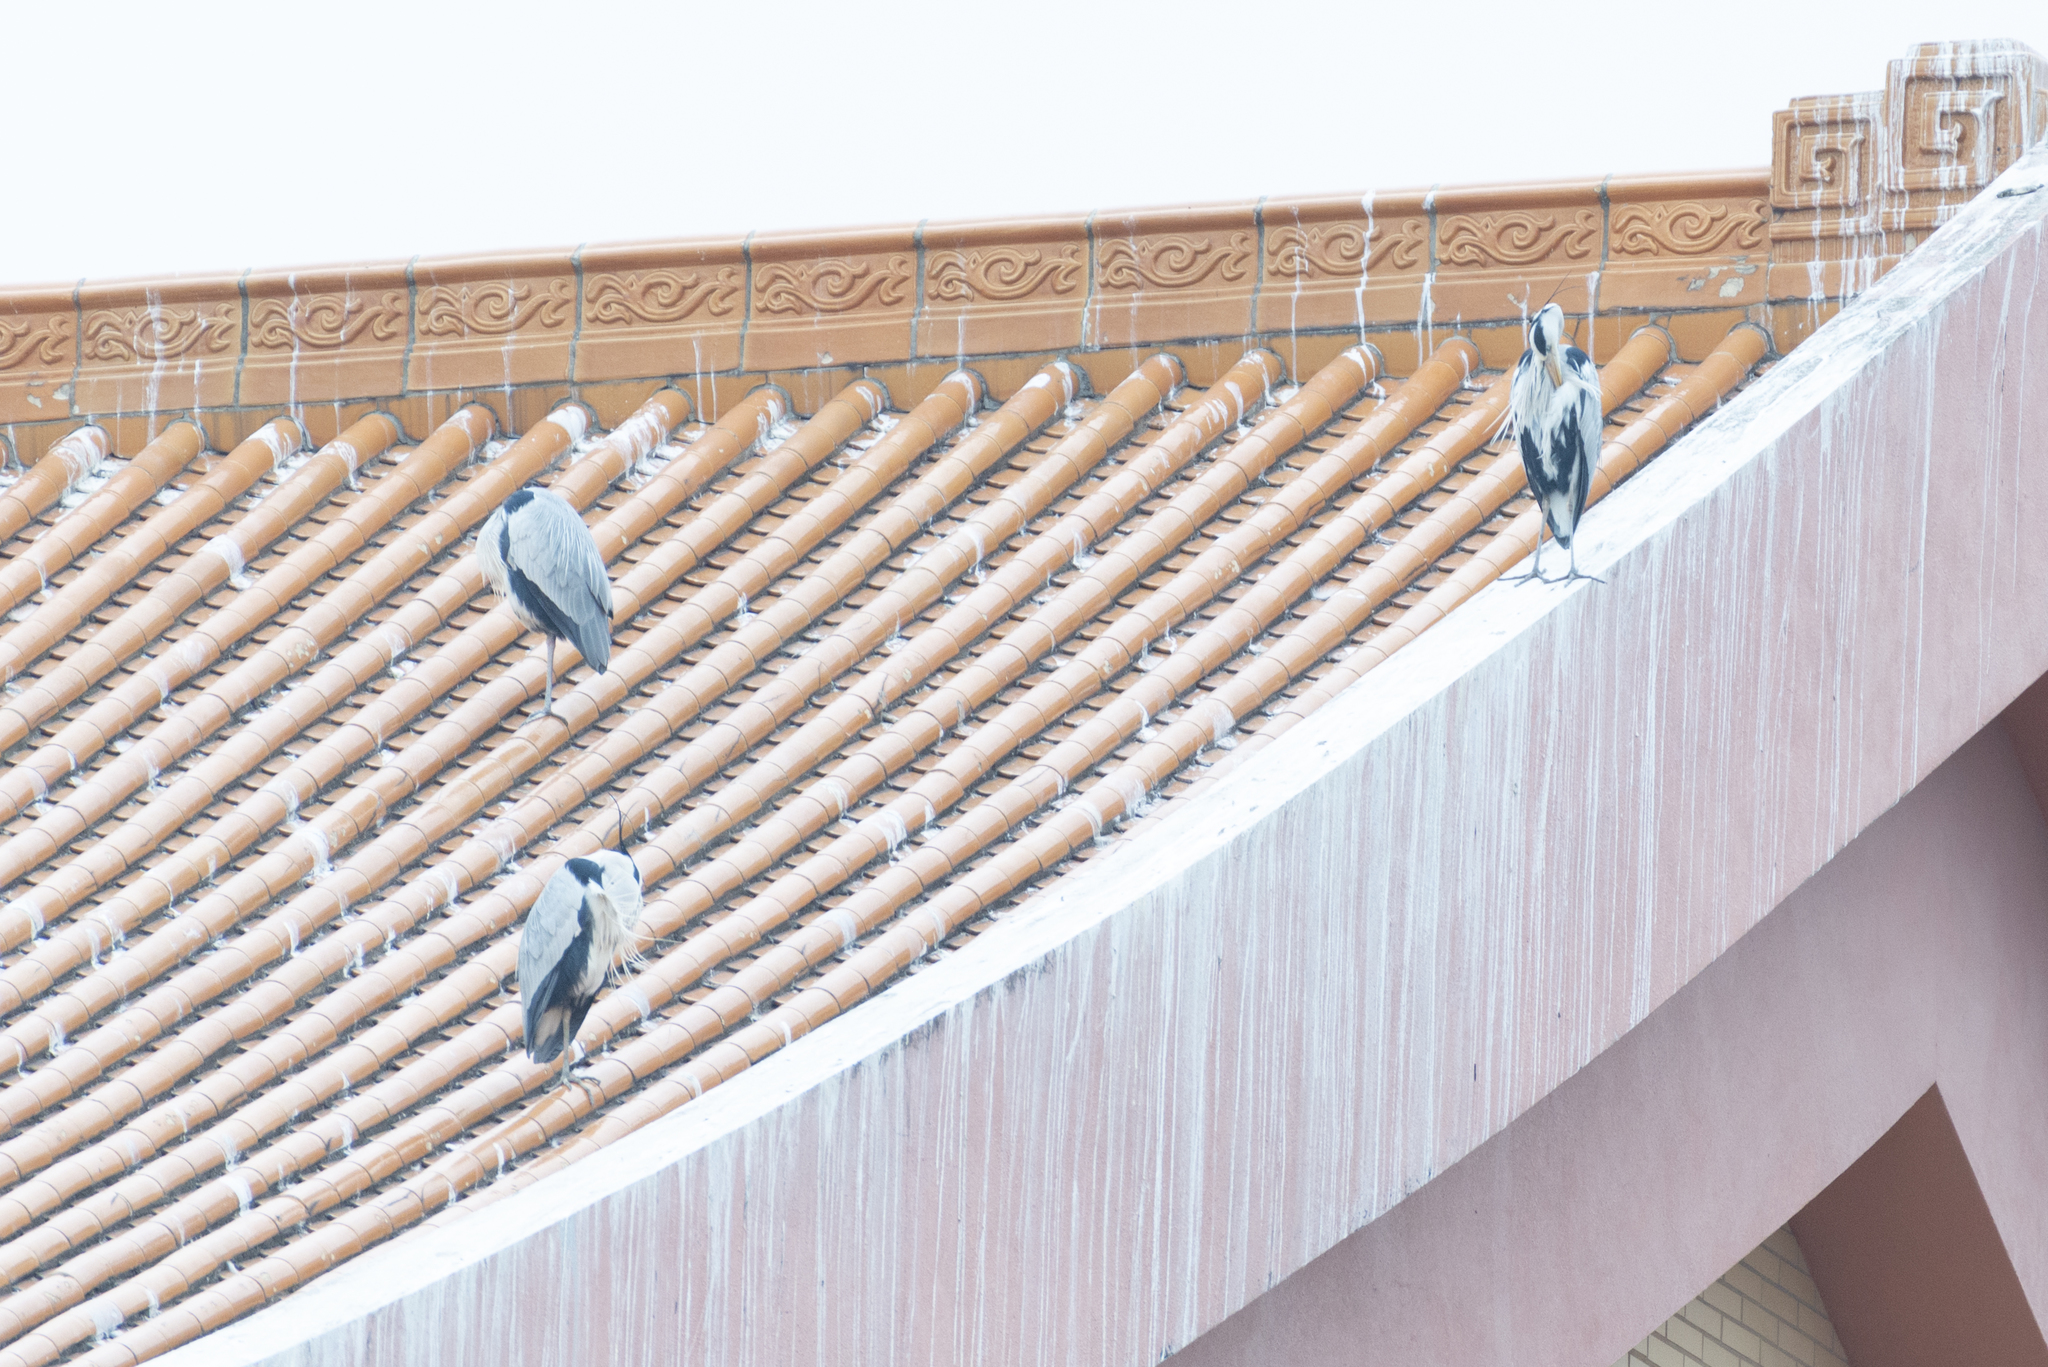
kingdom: Animalia
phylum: Chordata
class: Aves
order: Pelecaniformes
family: Ardeidae
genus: Ardea
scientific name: Ardea cinerea
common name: Grey heron
